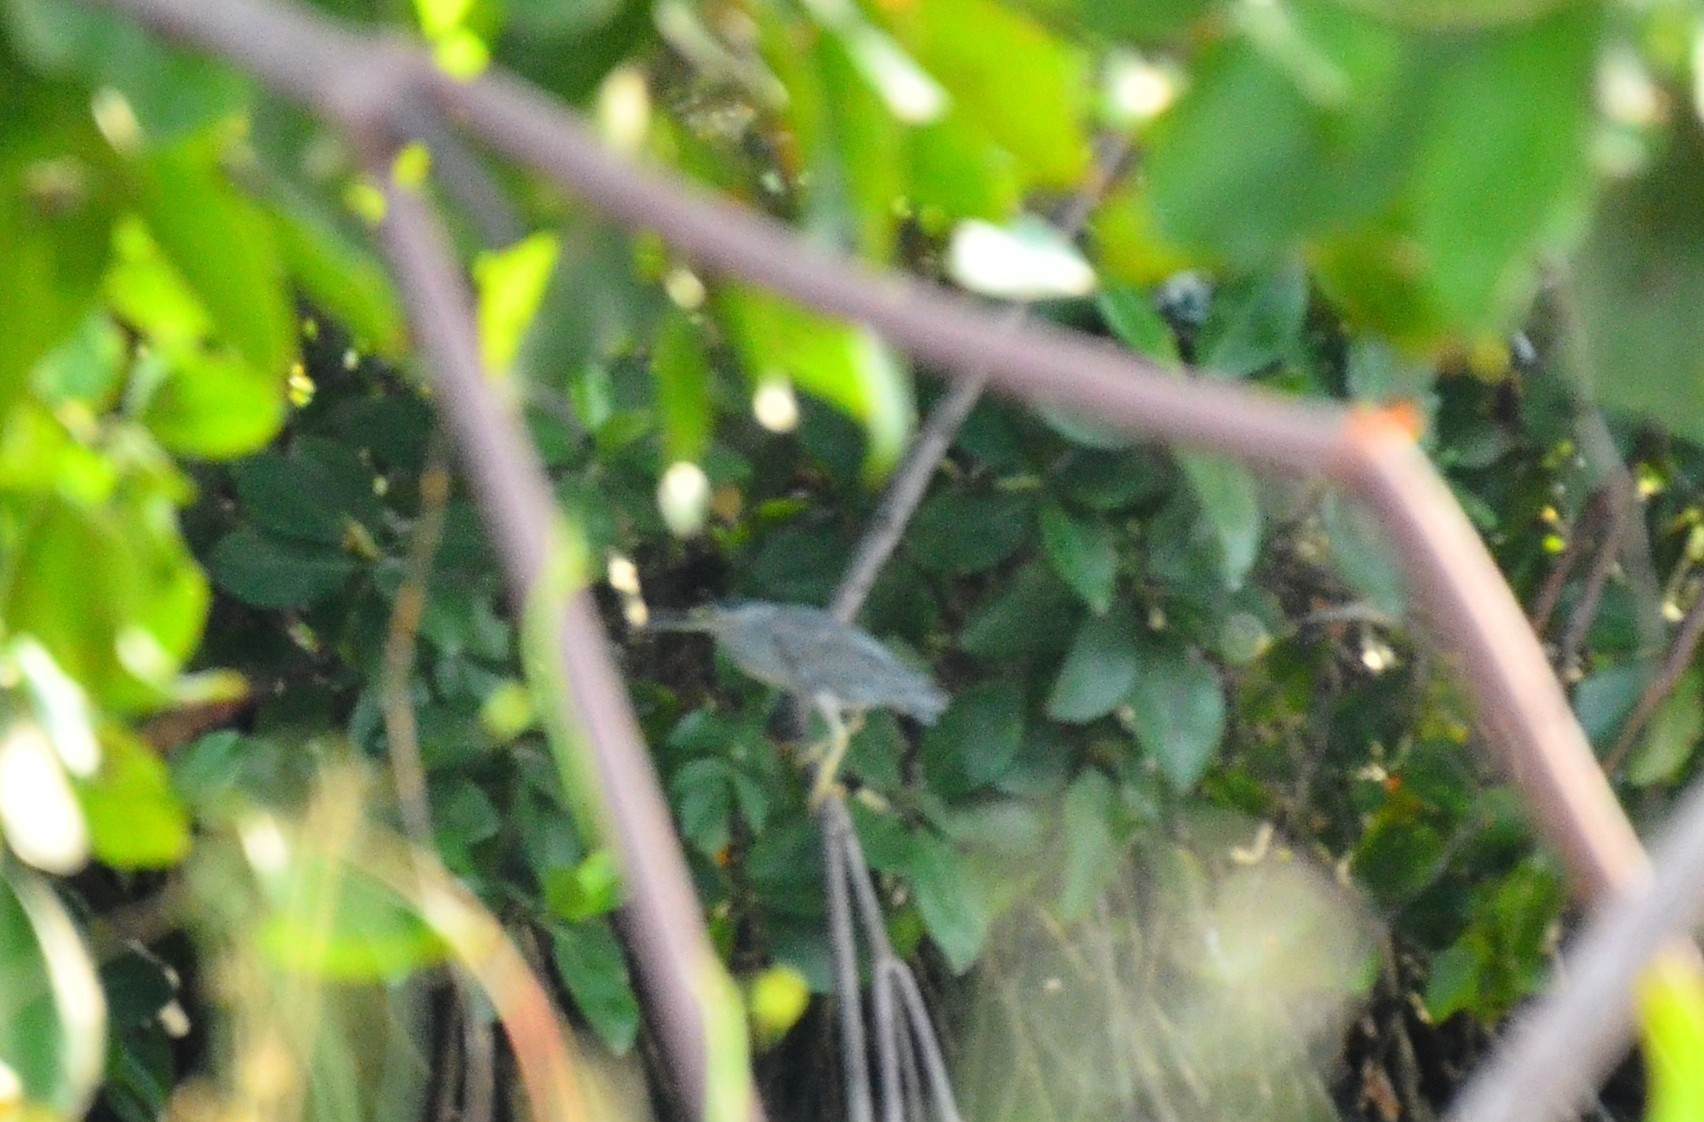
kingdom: Animalia
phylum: Chordata
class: Aves
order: Pelecaniformes
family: Ardeidae
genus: Butorides
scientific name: Butorides striata
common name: Striated heron
